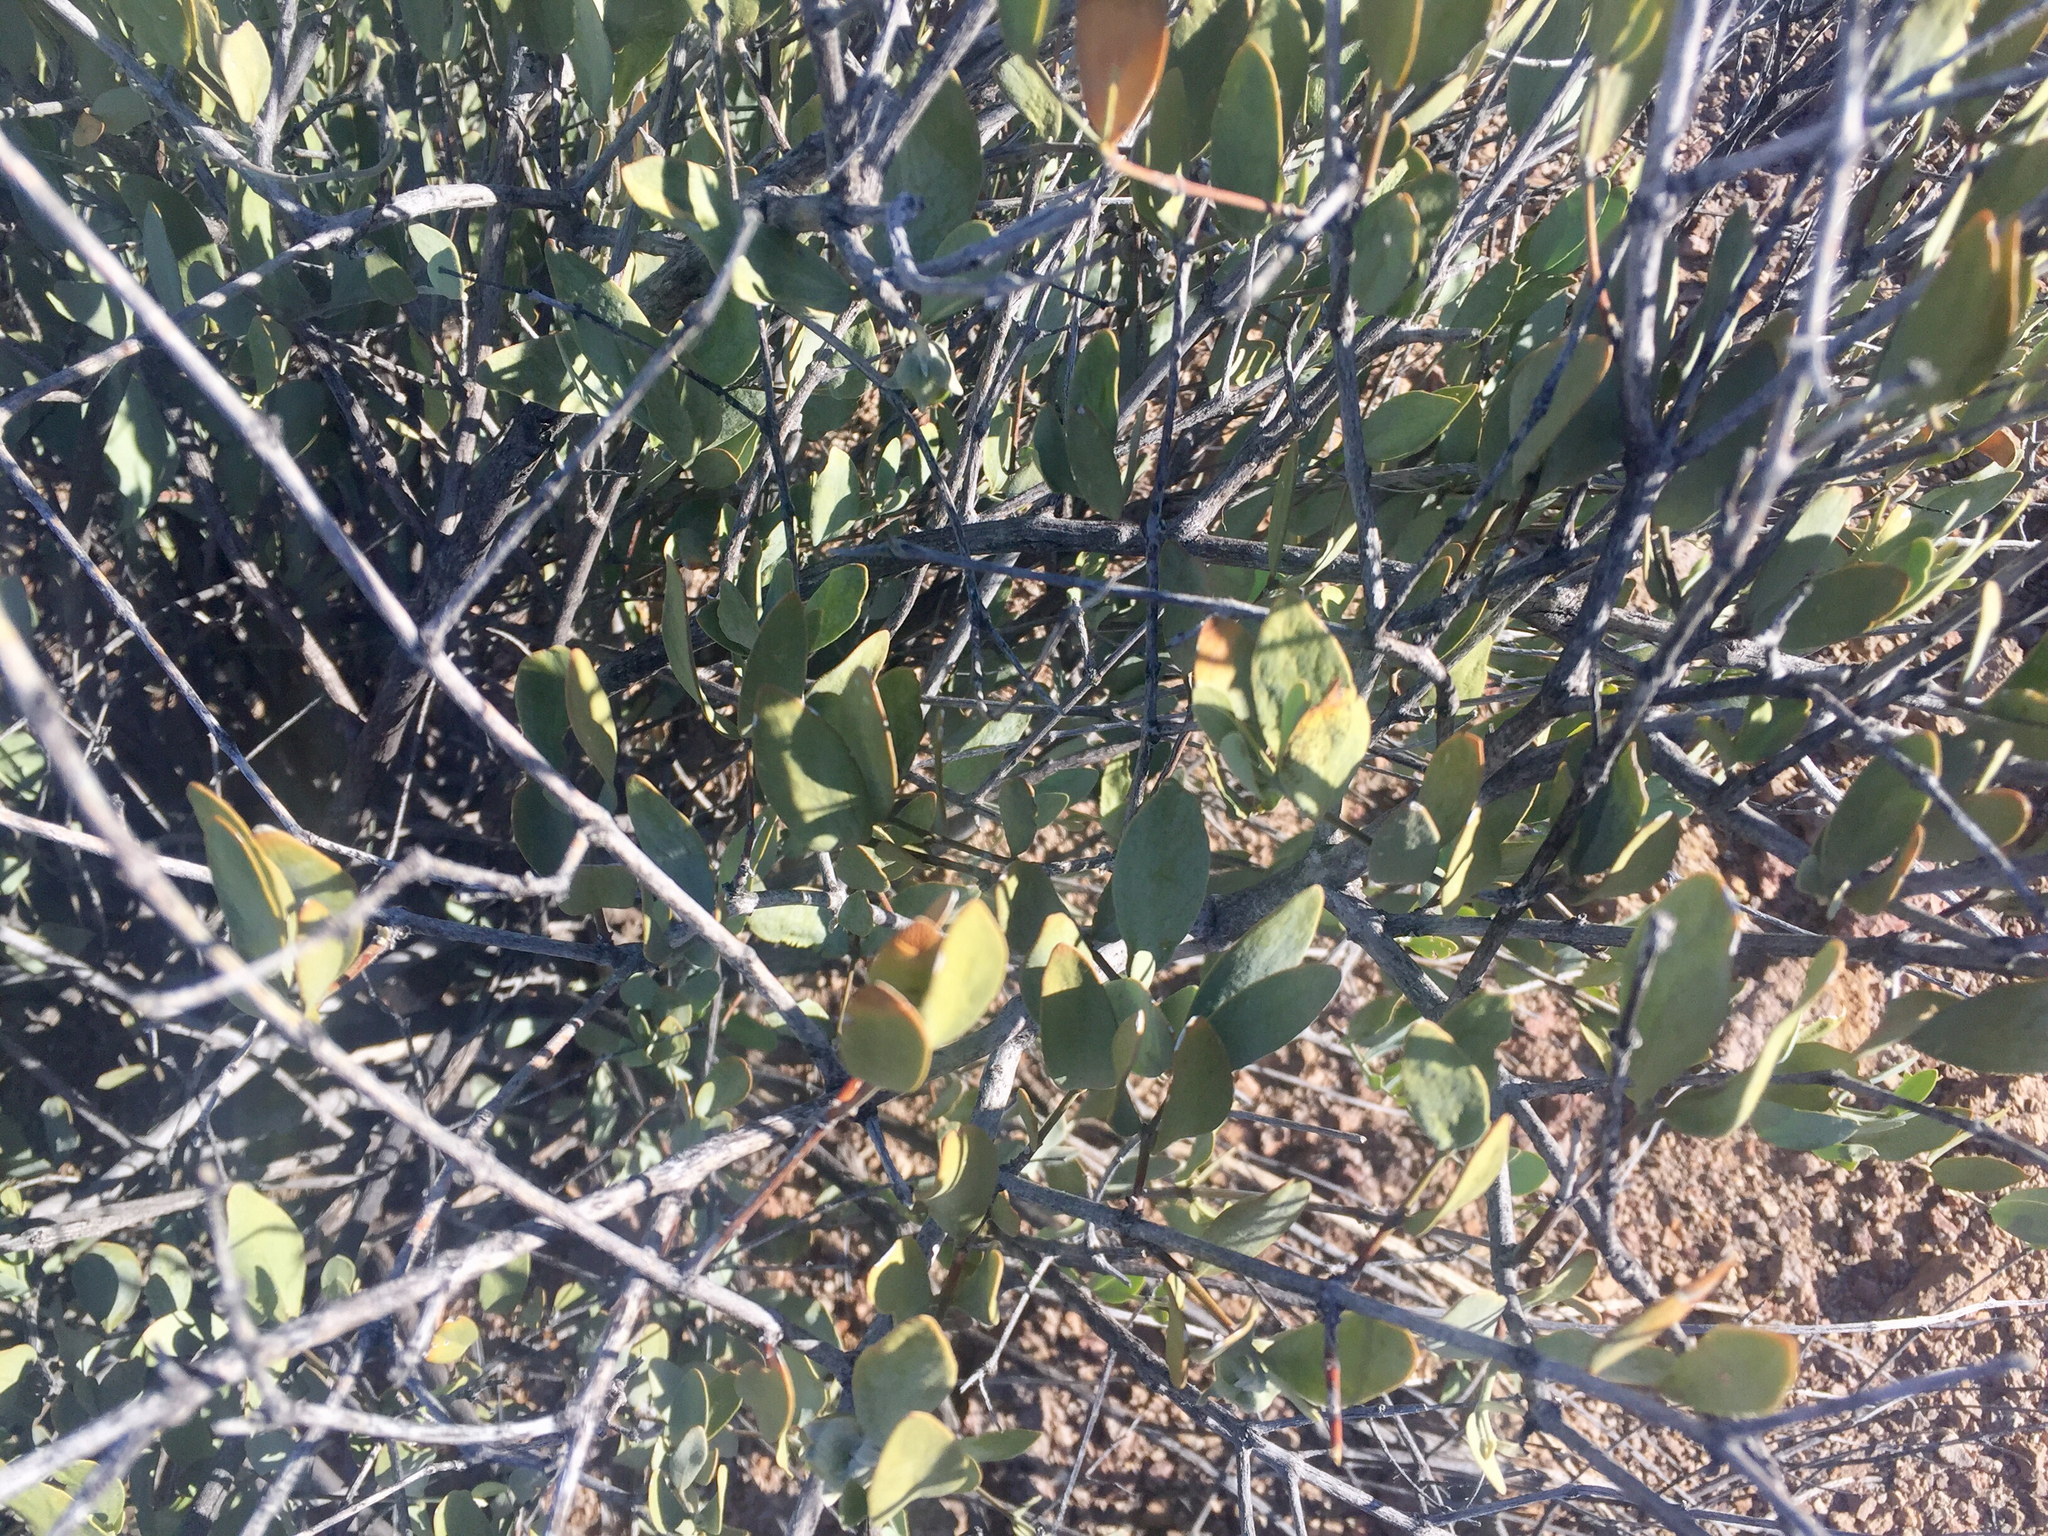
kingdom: Plantae
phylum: Tracheophyta
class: Magnoliopsida
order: Caryophyllales
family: Simmondsiaceae
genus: Simmondsia
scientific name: Simmondsia chinensis
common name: Jojoba
